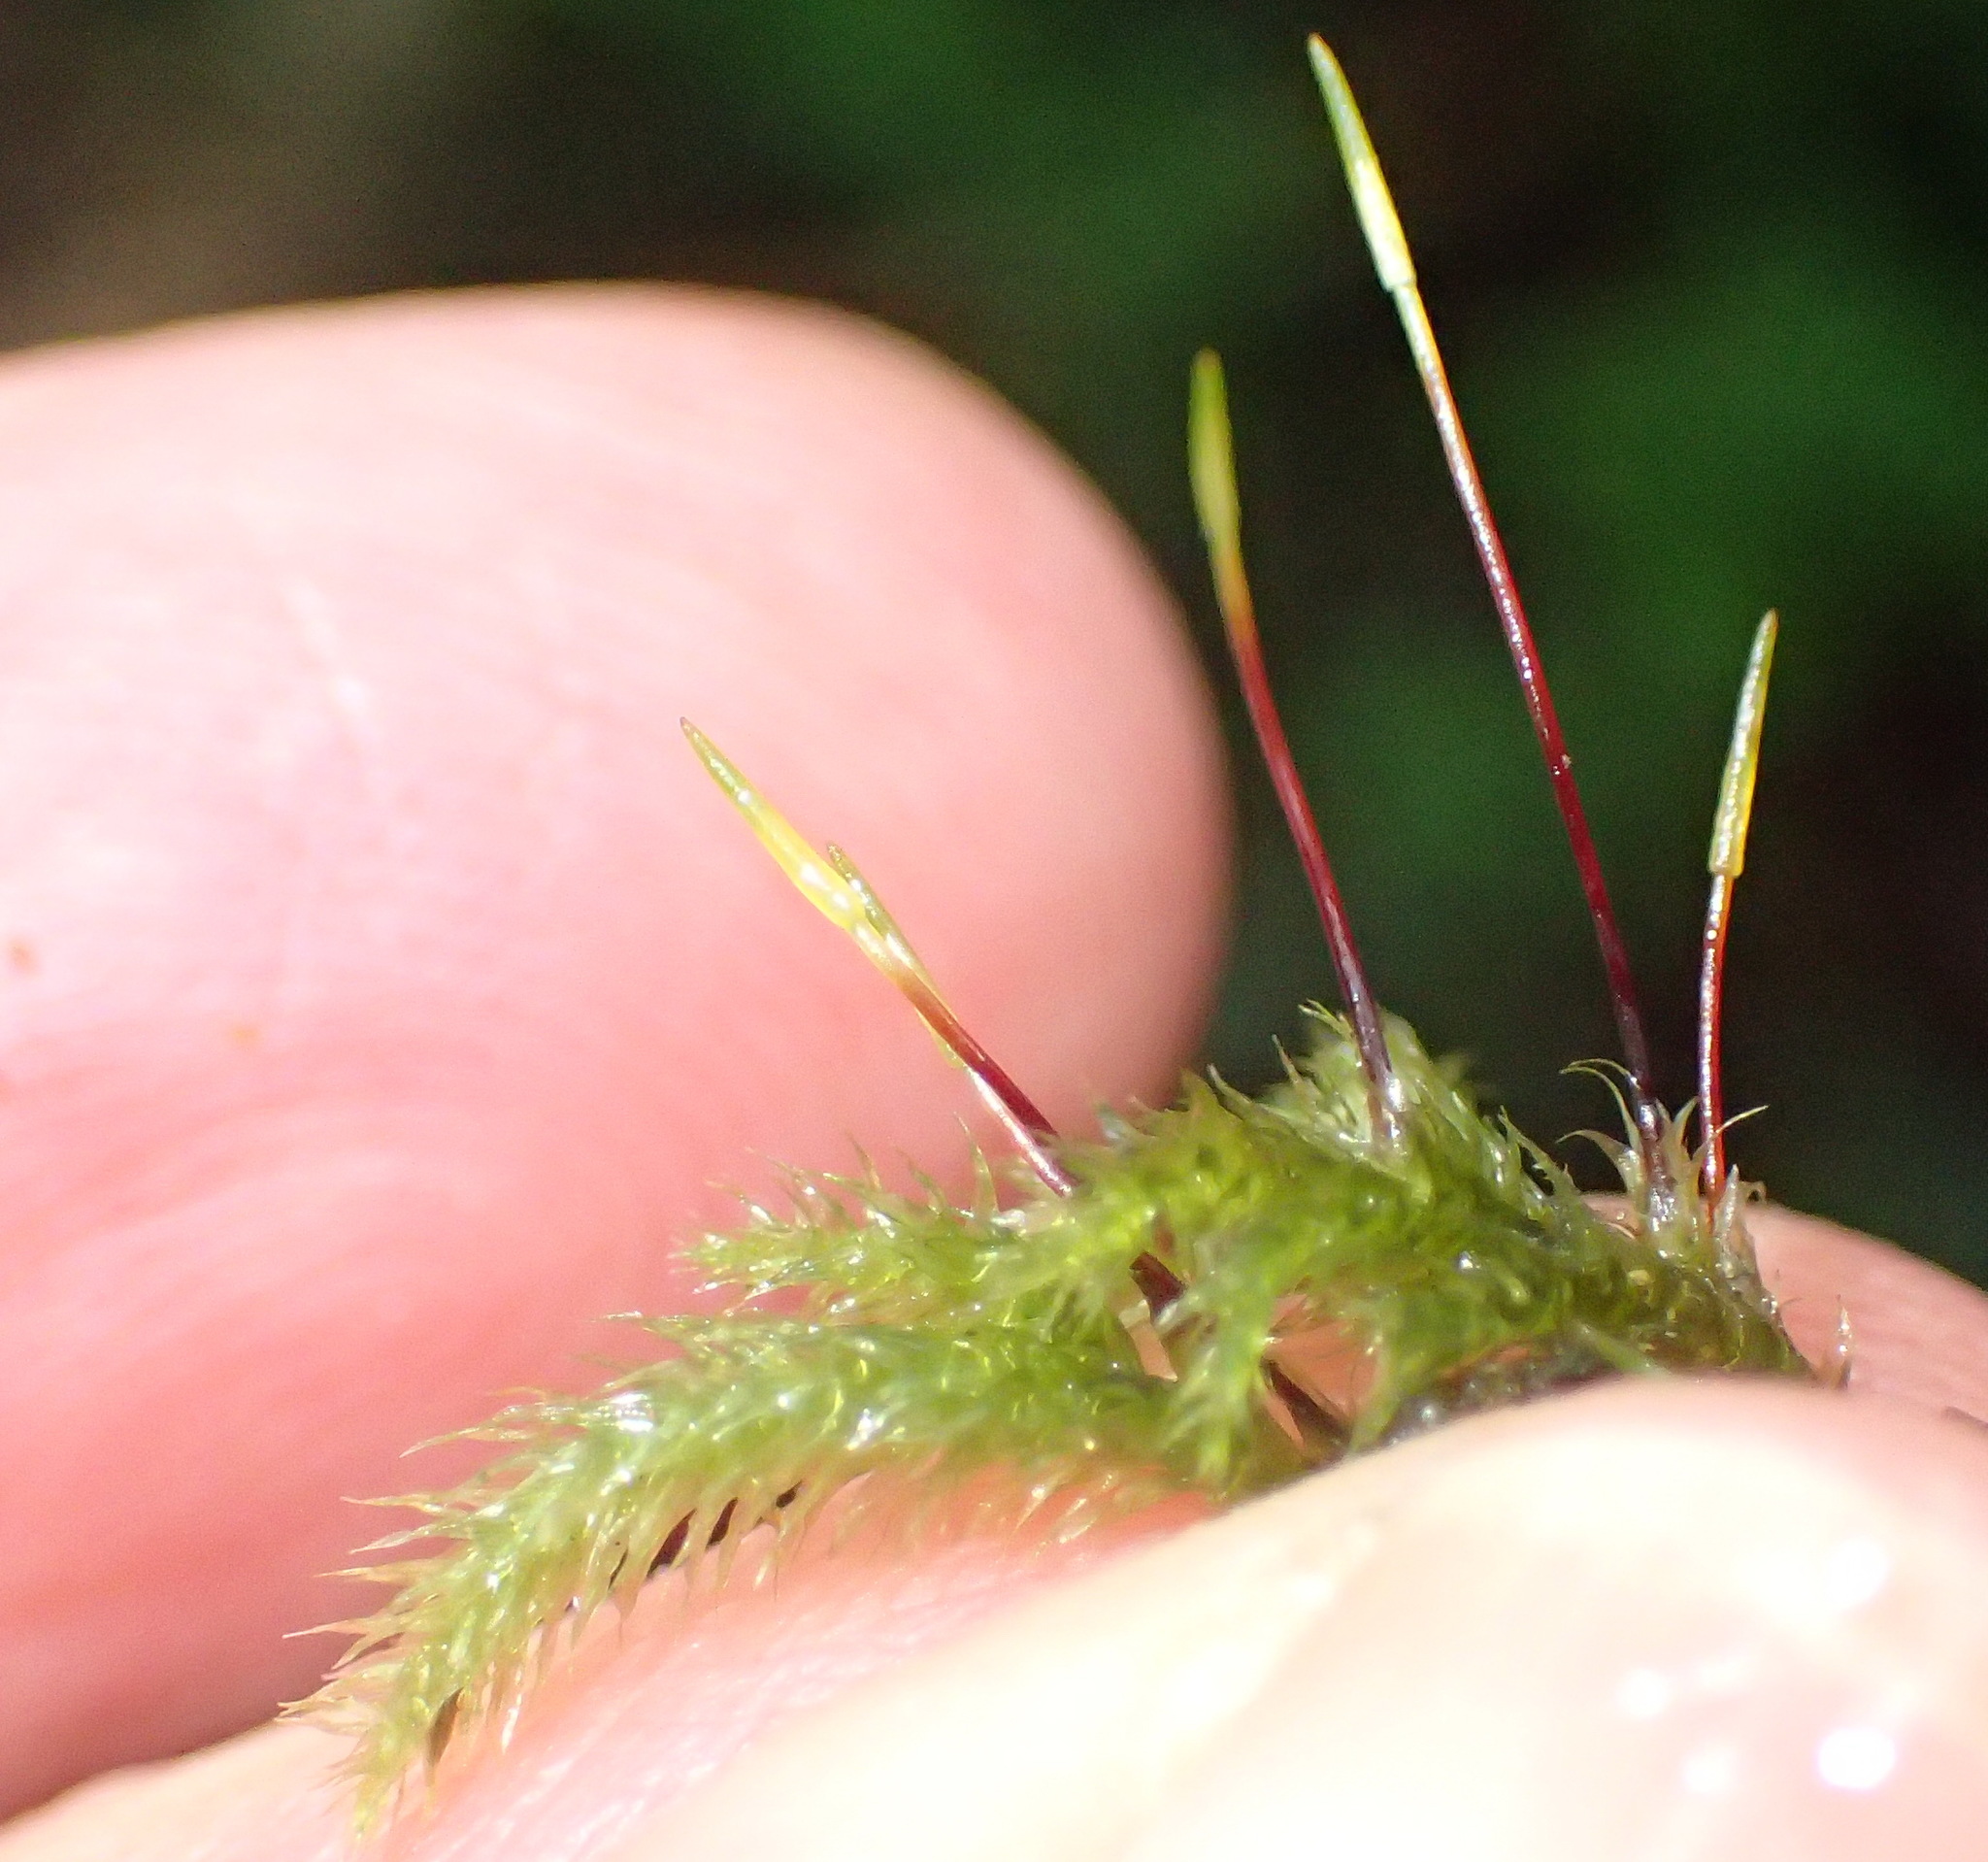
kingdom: Plantae
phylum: Bryophyta
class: Bryopsida
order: Hypnales
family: Brachytheciaceae
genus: Palamocladium
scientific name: Palamocladium leskeoides
